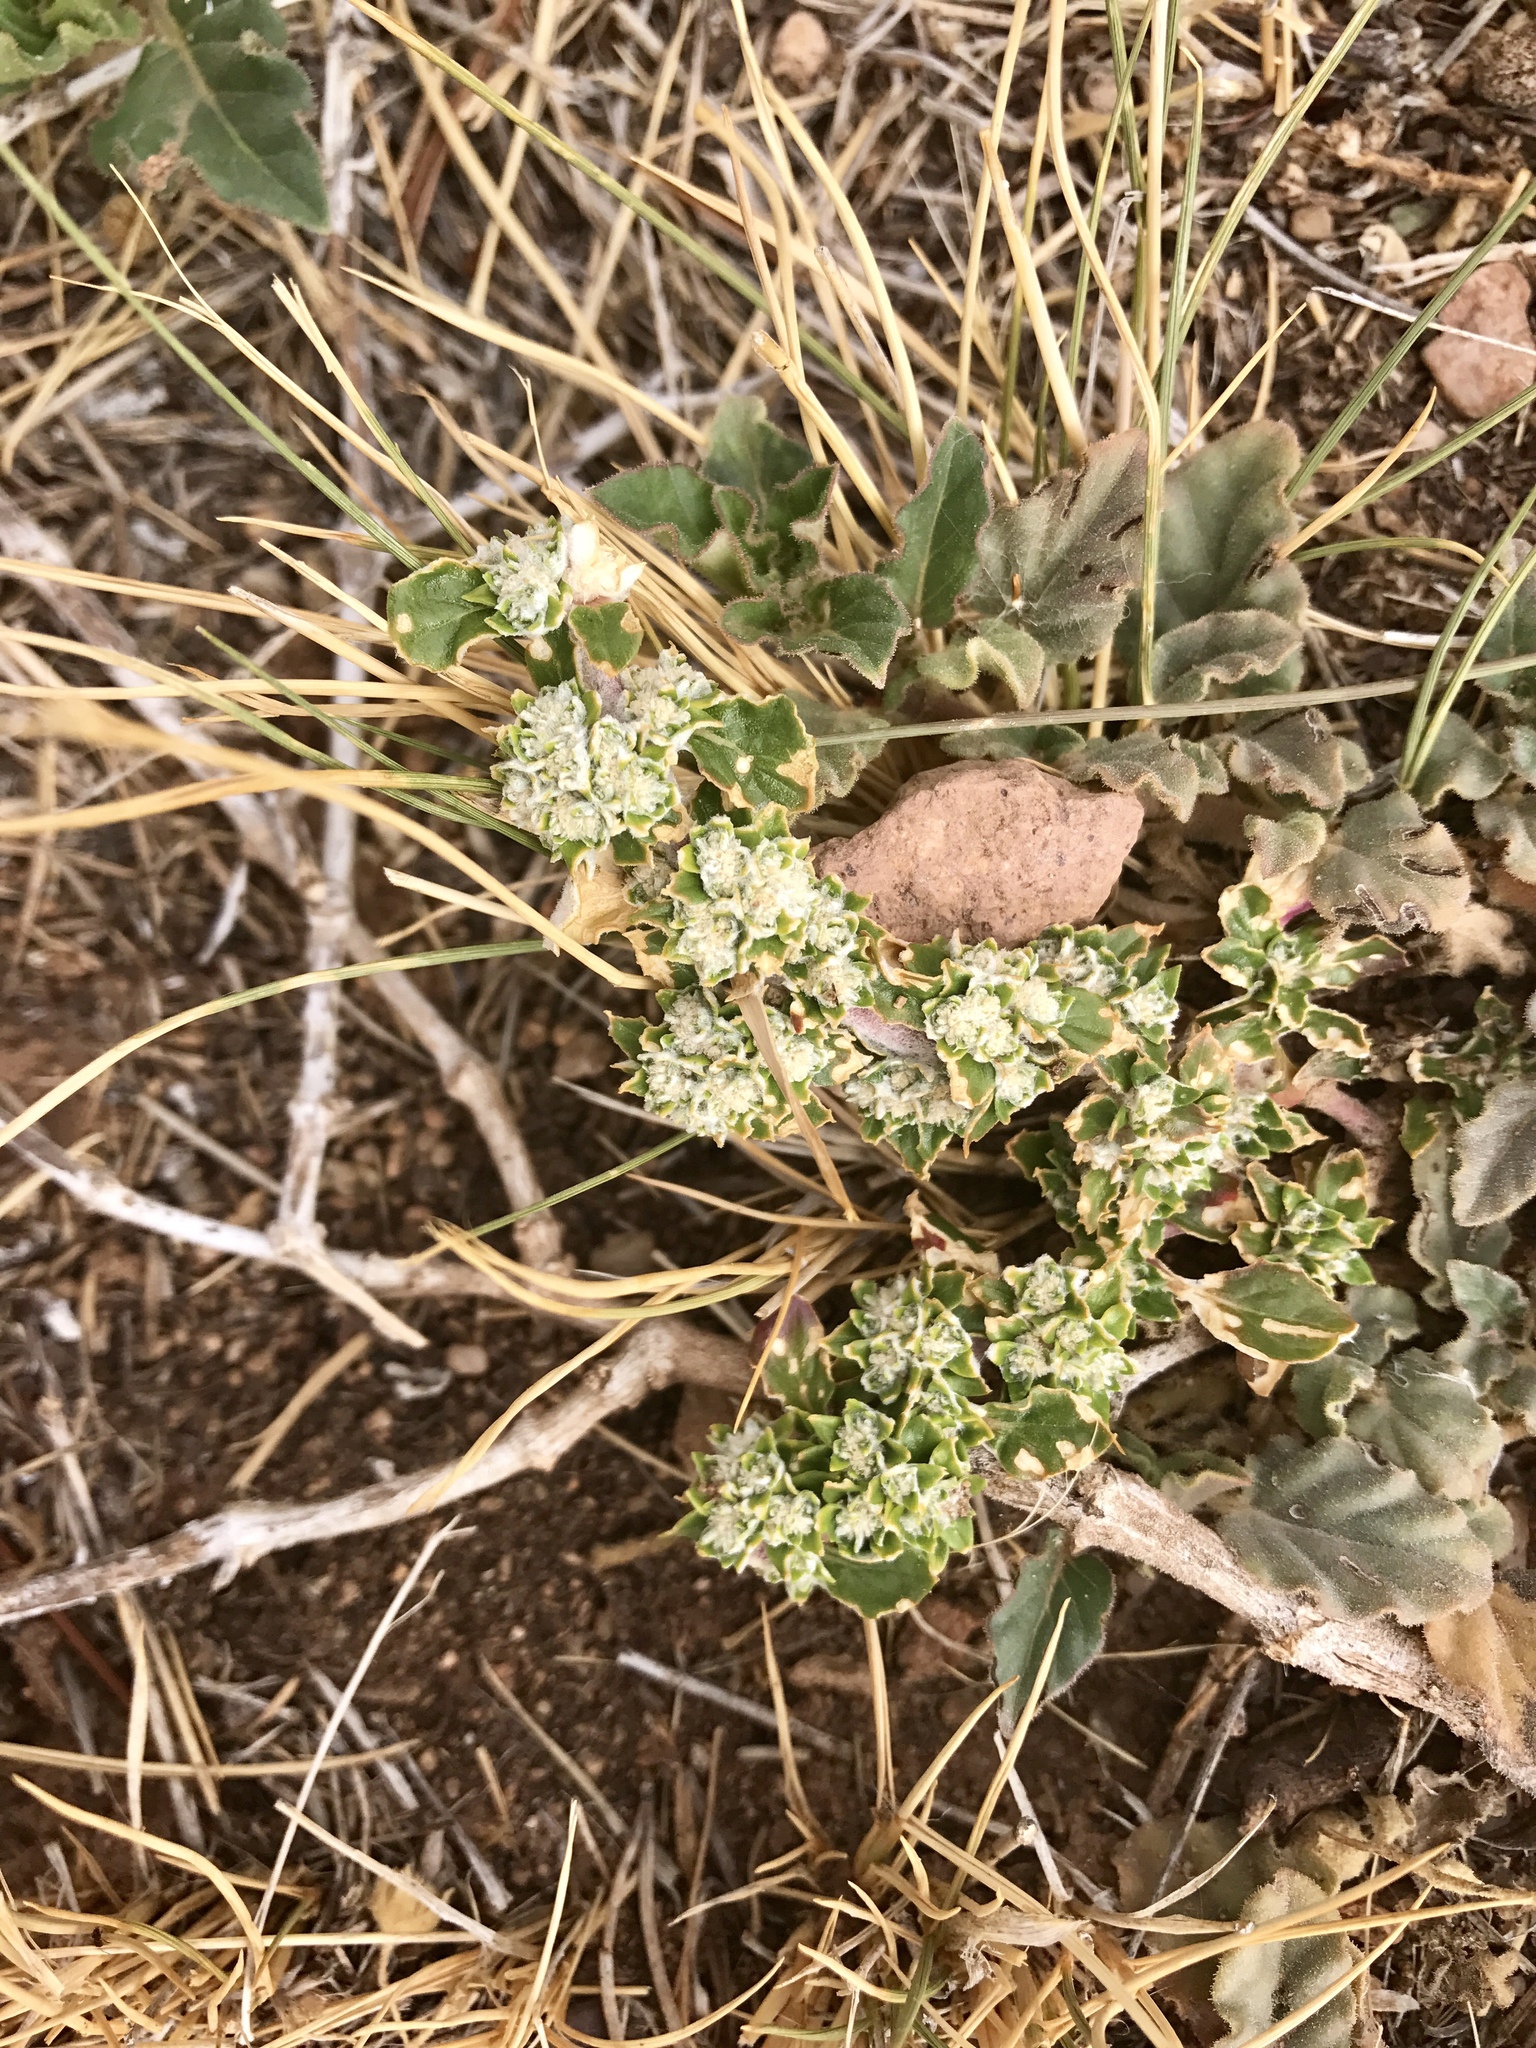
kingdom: Plantae
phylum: Tracheophyta
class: Magnoliopsida
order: Caryophyllales
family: Amaranthaceae
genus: Guilleminea
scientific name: Guilleminea densa
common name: Small matweed
